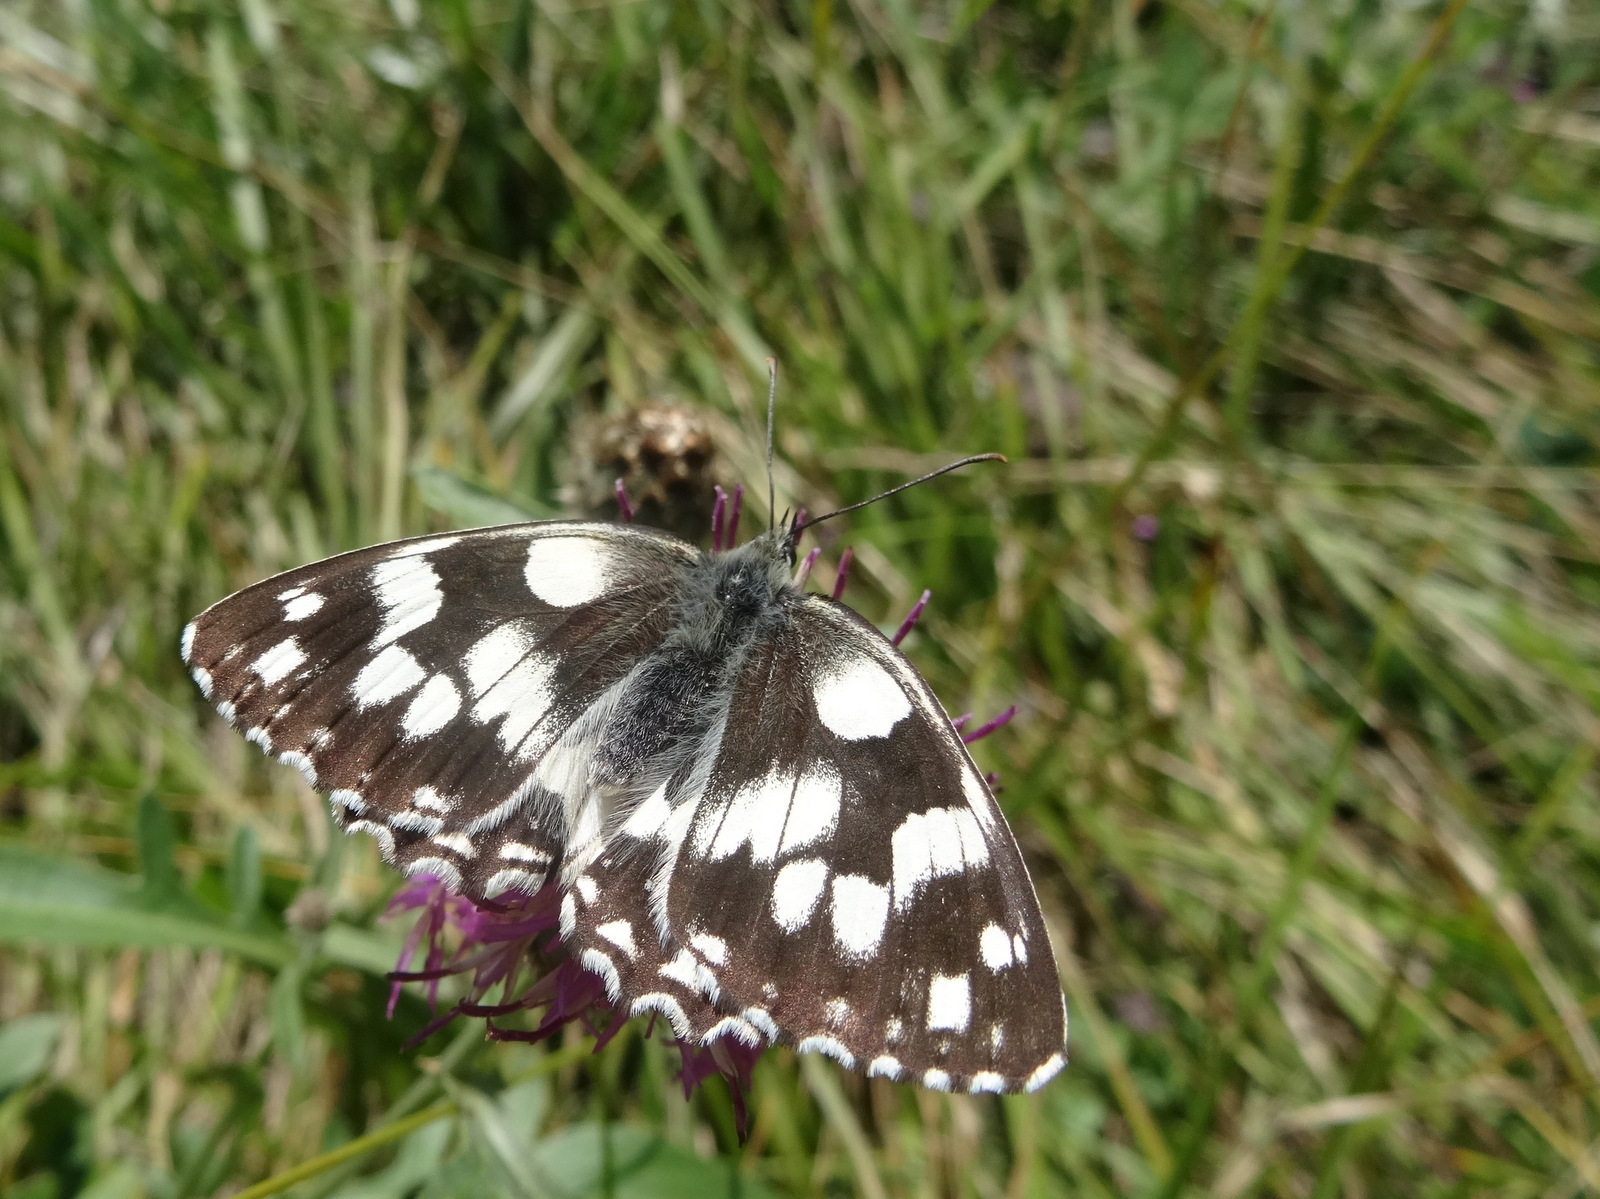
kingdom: Animalia
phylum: Arthropoda
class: Insecta
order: Lepidoptera
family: Nymphalidae
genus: Melanargia
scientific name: Melanargia galathea
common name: Marbled white
